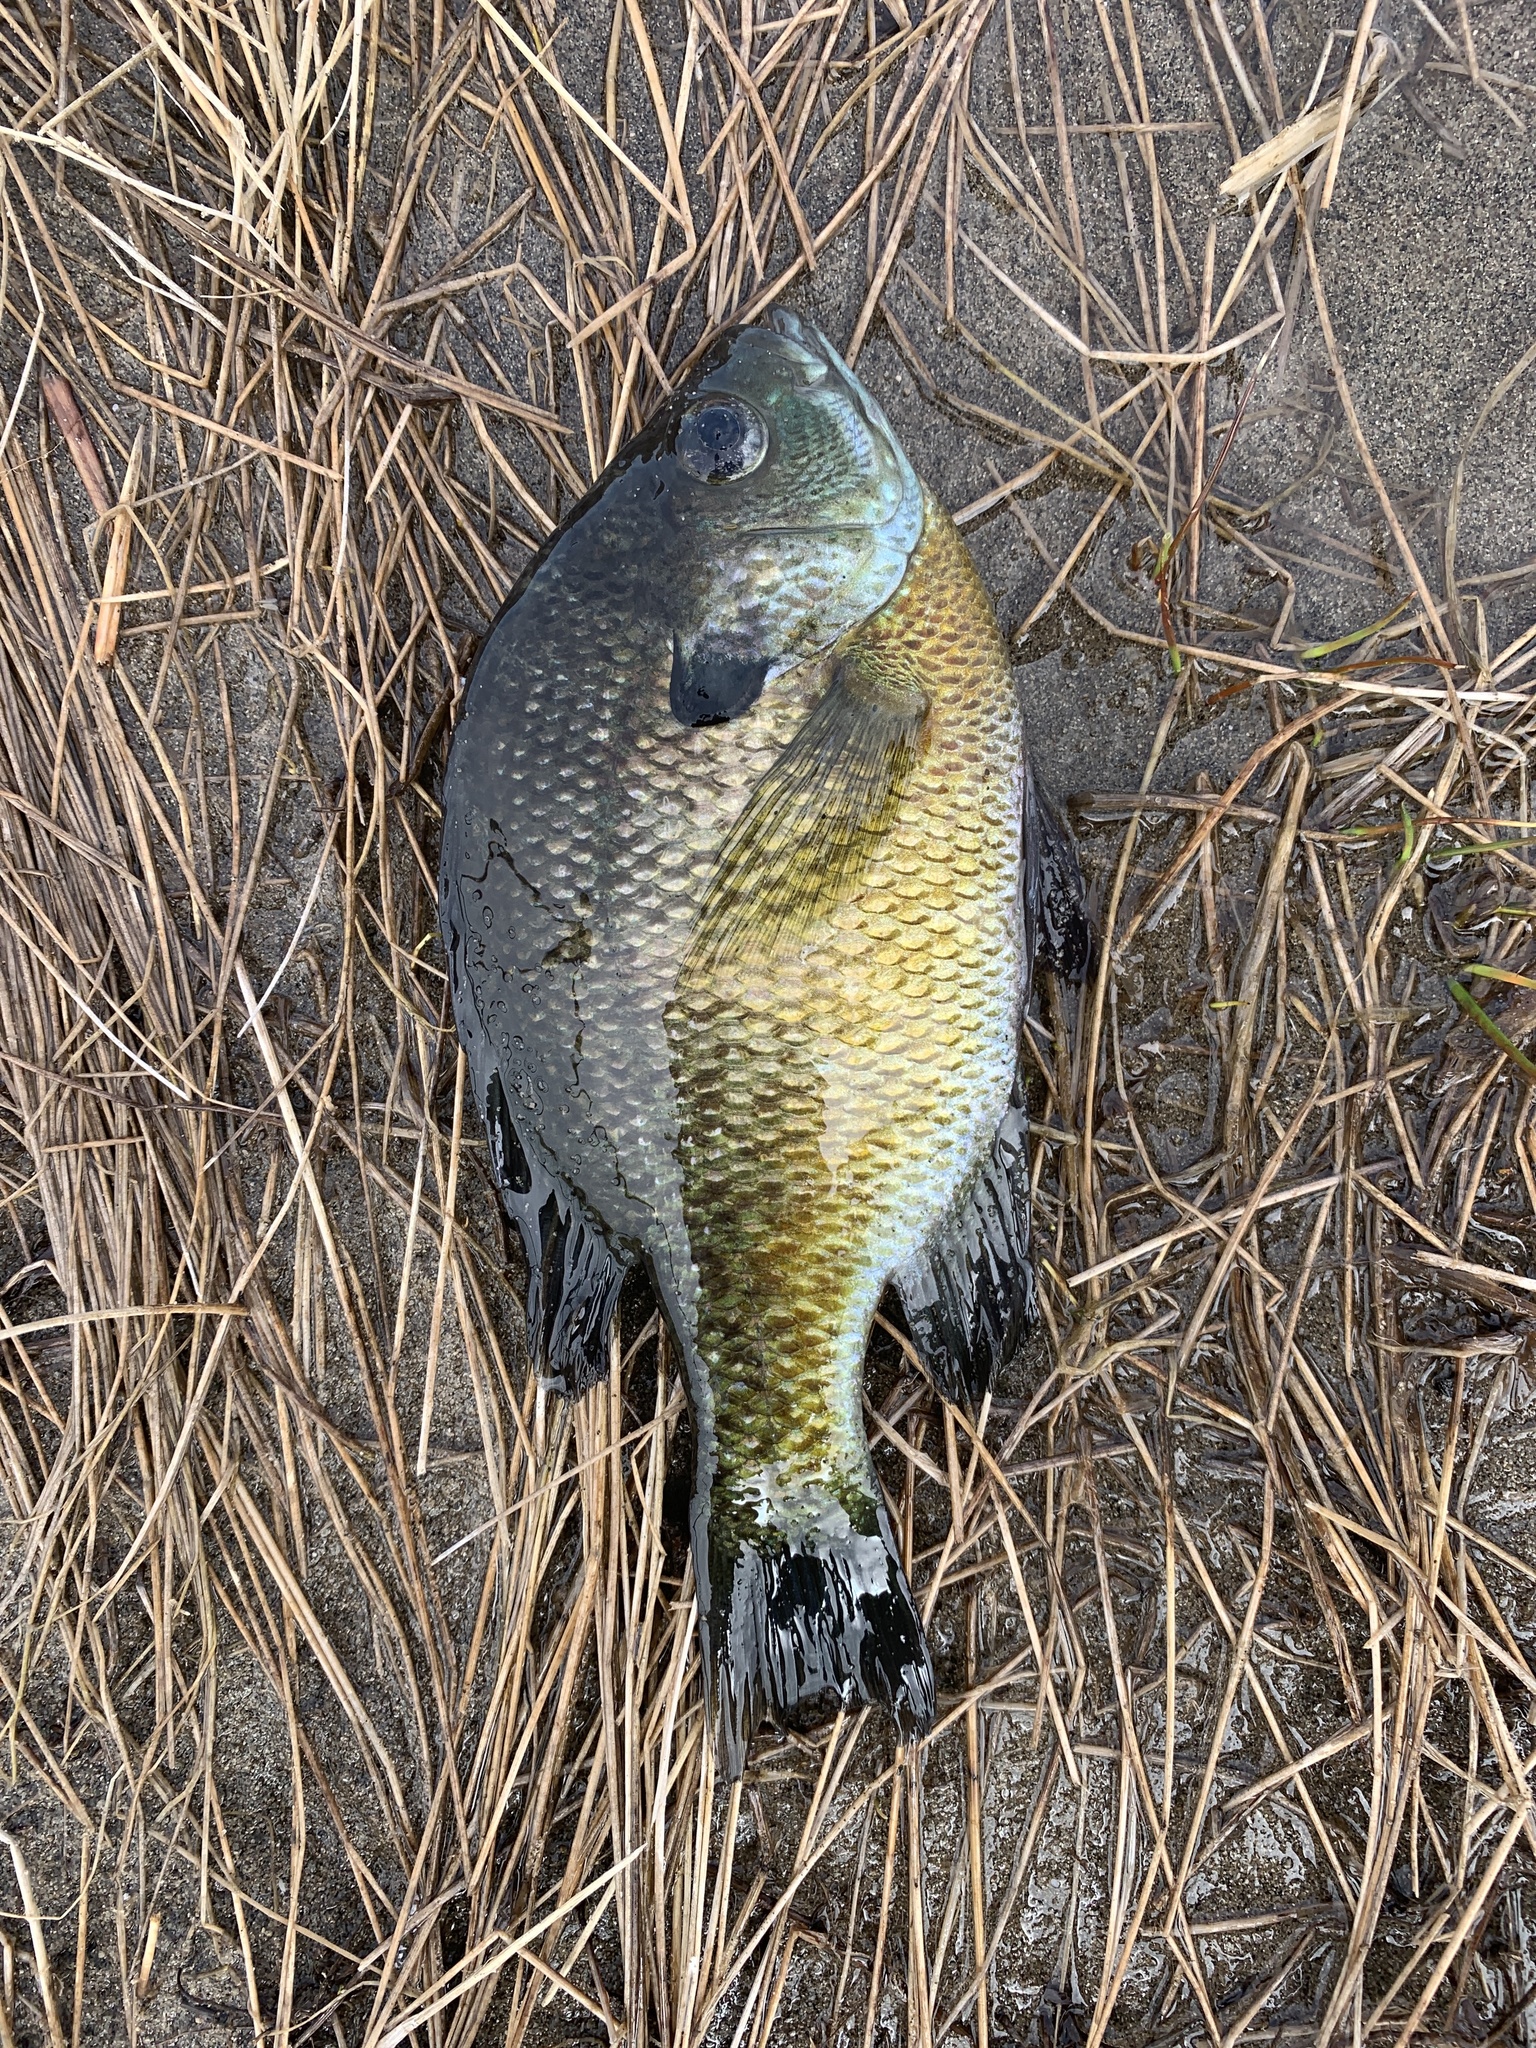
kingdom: Animalia
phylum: Chordata
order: Perciformes
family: Centrarchidae
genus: Lepomis
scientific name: Lepomis macrochirus
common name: Bluegill
